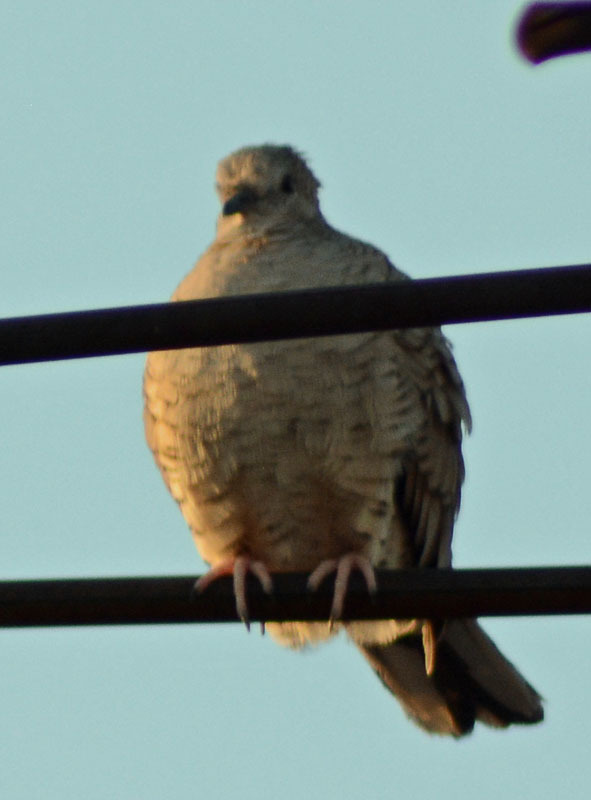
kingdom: Animalia
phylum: Chordata
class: Aves
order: Columbiformes
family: Columbidae
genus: Columbina
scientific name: Columbina inca
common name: Inca dove
